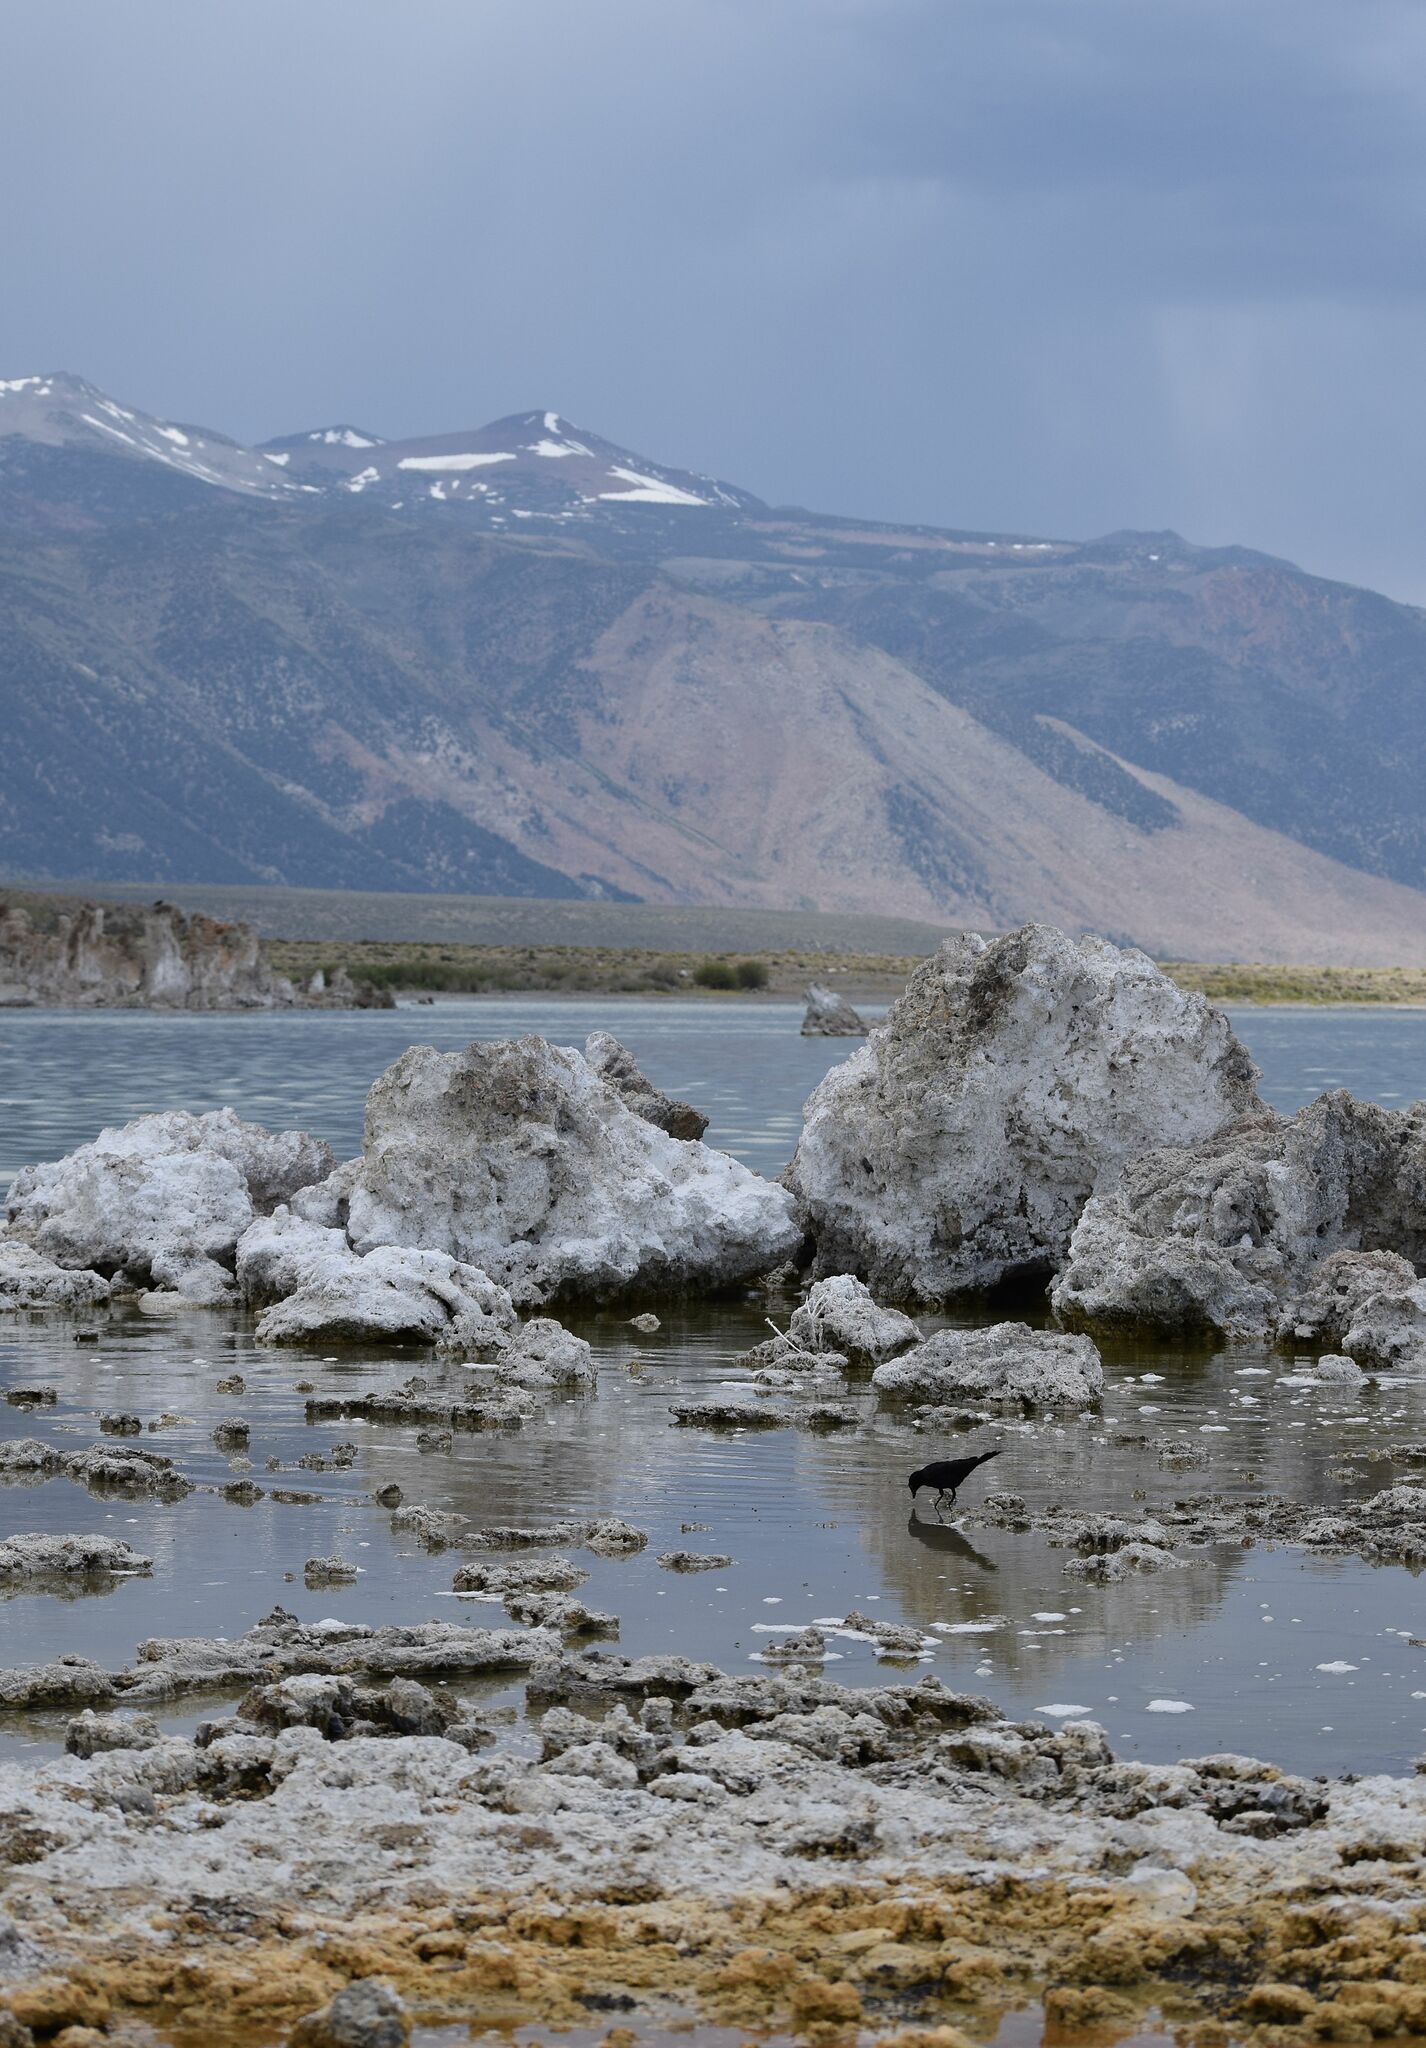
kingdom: Animalia
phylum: Chordata
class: Aves
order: Passeriformes
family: Icteridae
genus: Euphagus
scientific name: Euphagus cyanocephalus
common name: Brewer's blackbird
